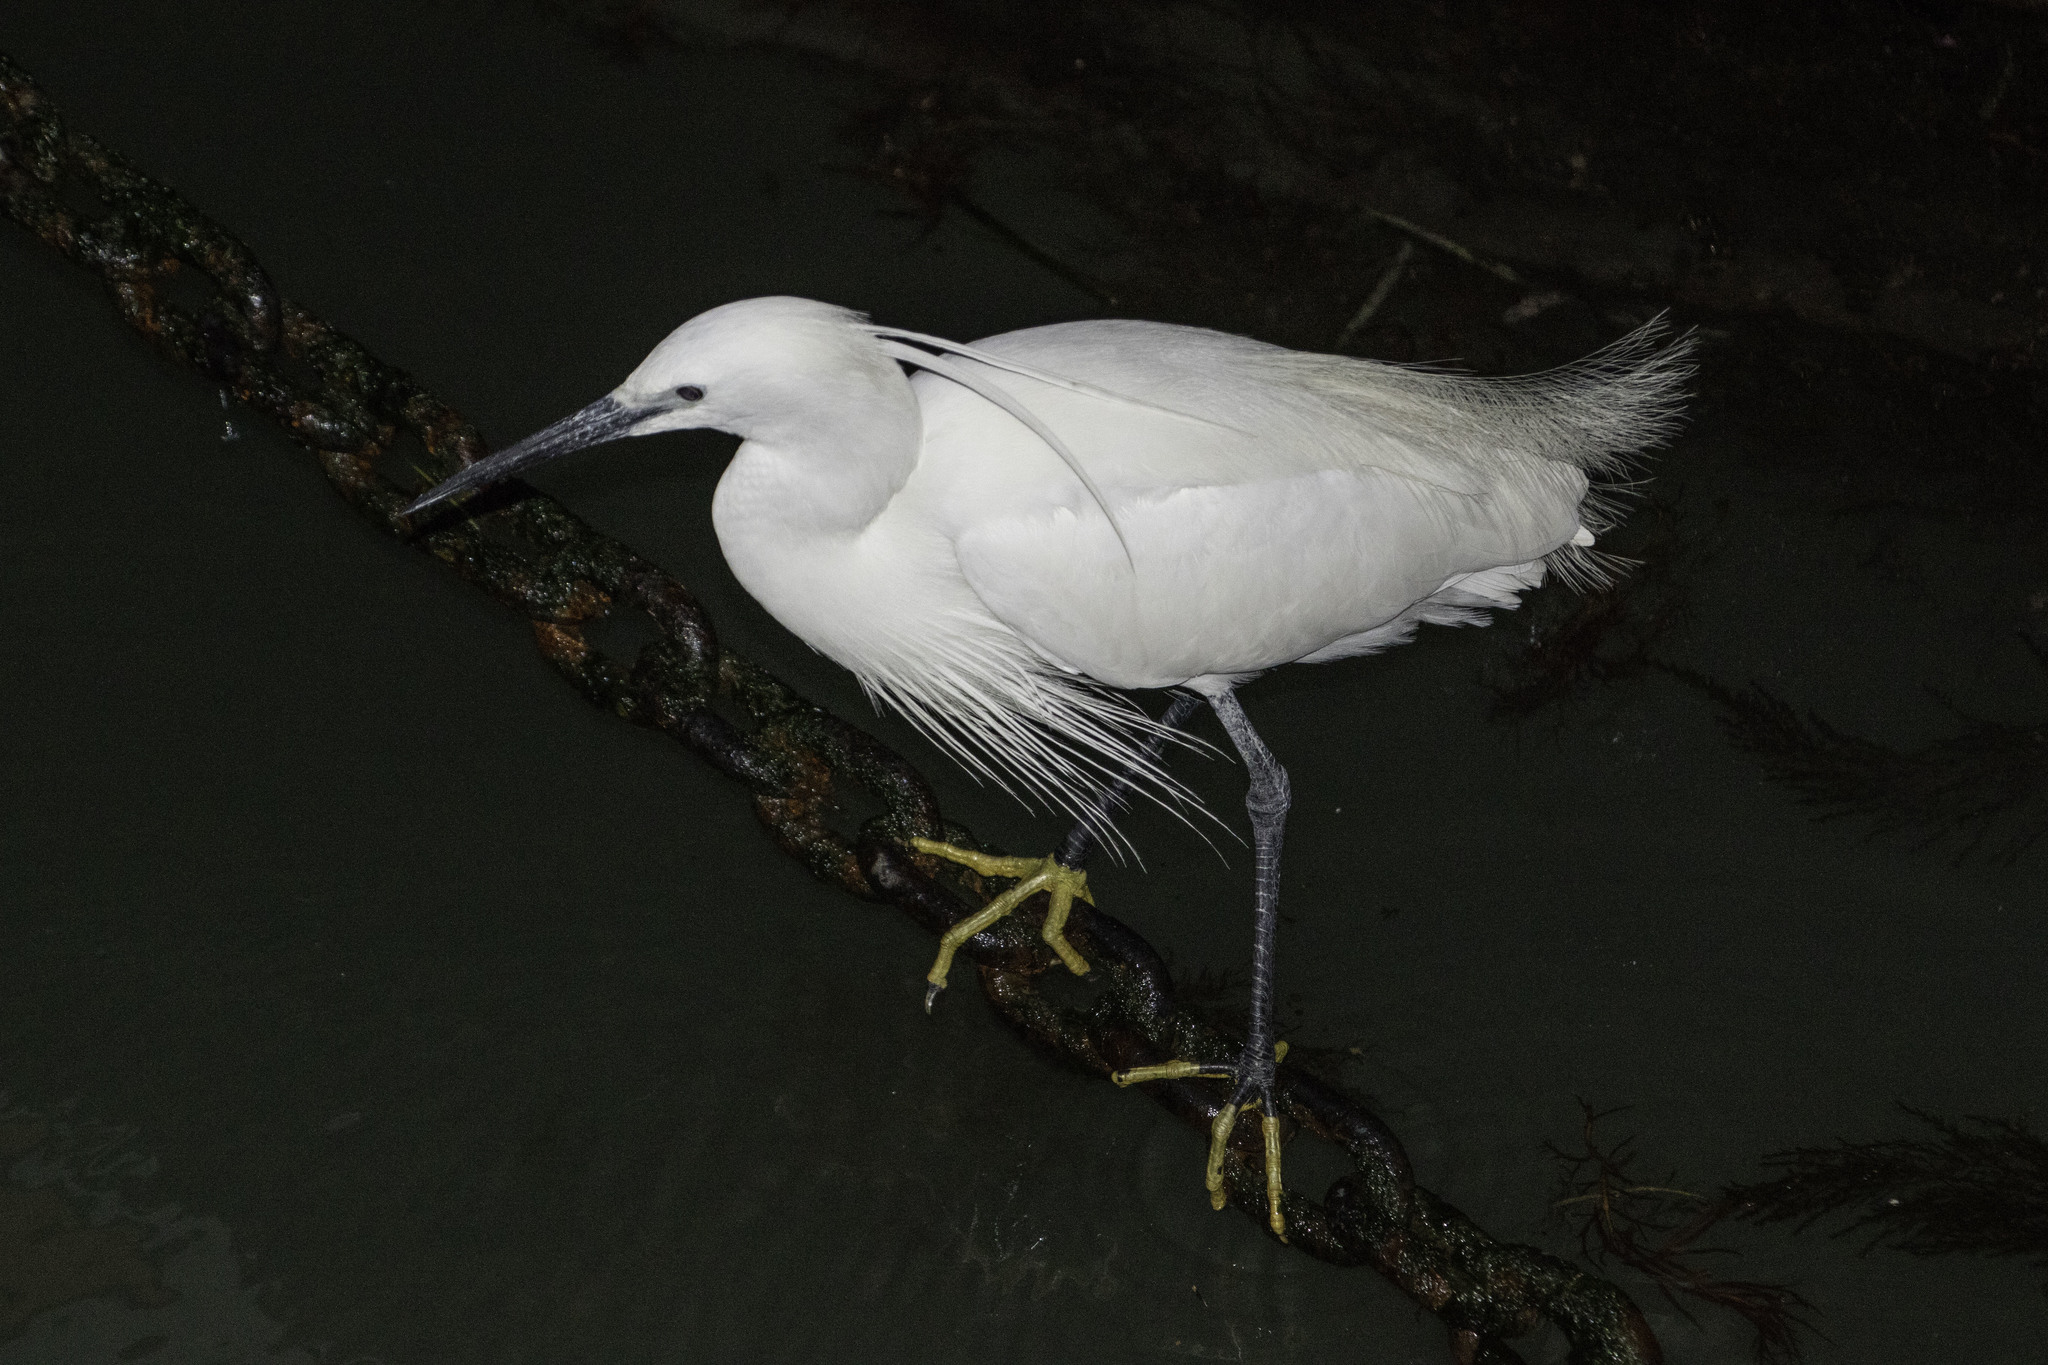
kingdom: Animalia
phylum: Chordata
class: Aves
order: Pelecaniformes
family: Ardeidae
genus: Egretta
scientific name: Egretta garzetta
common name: Little egret
